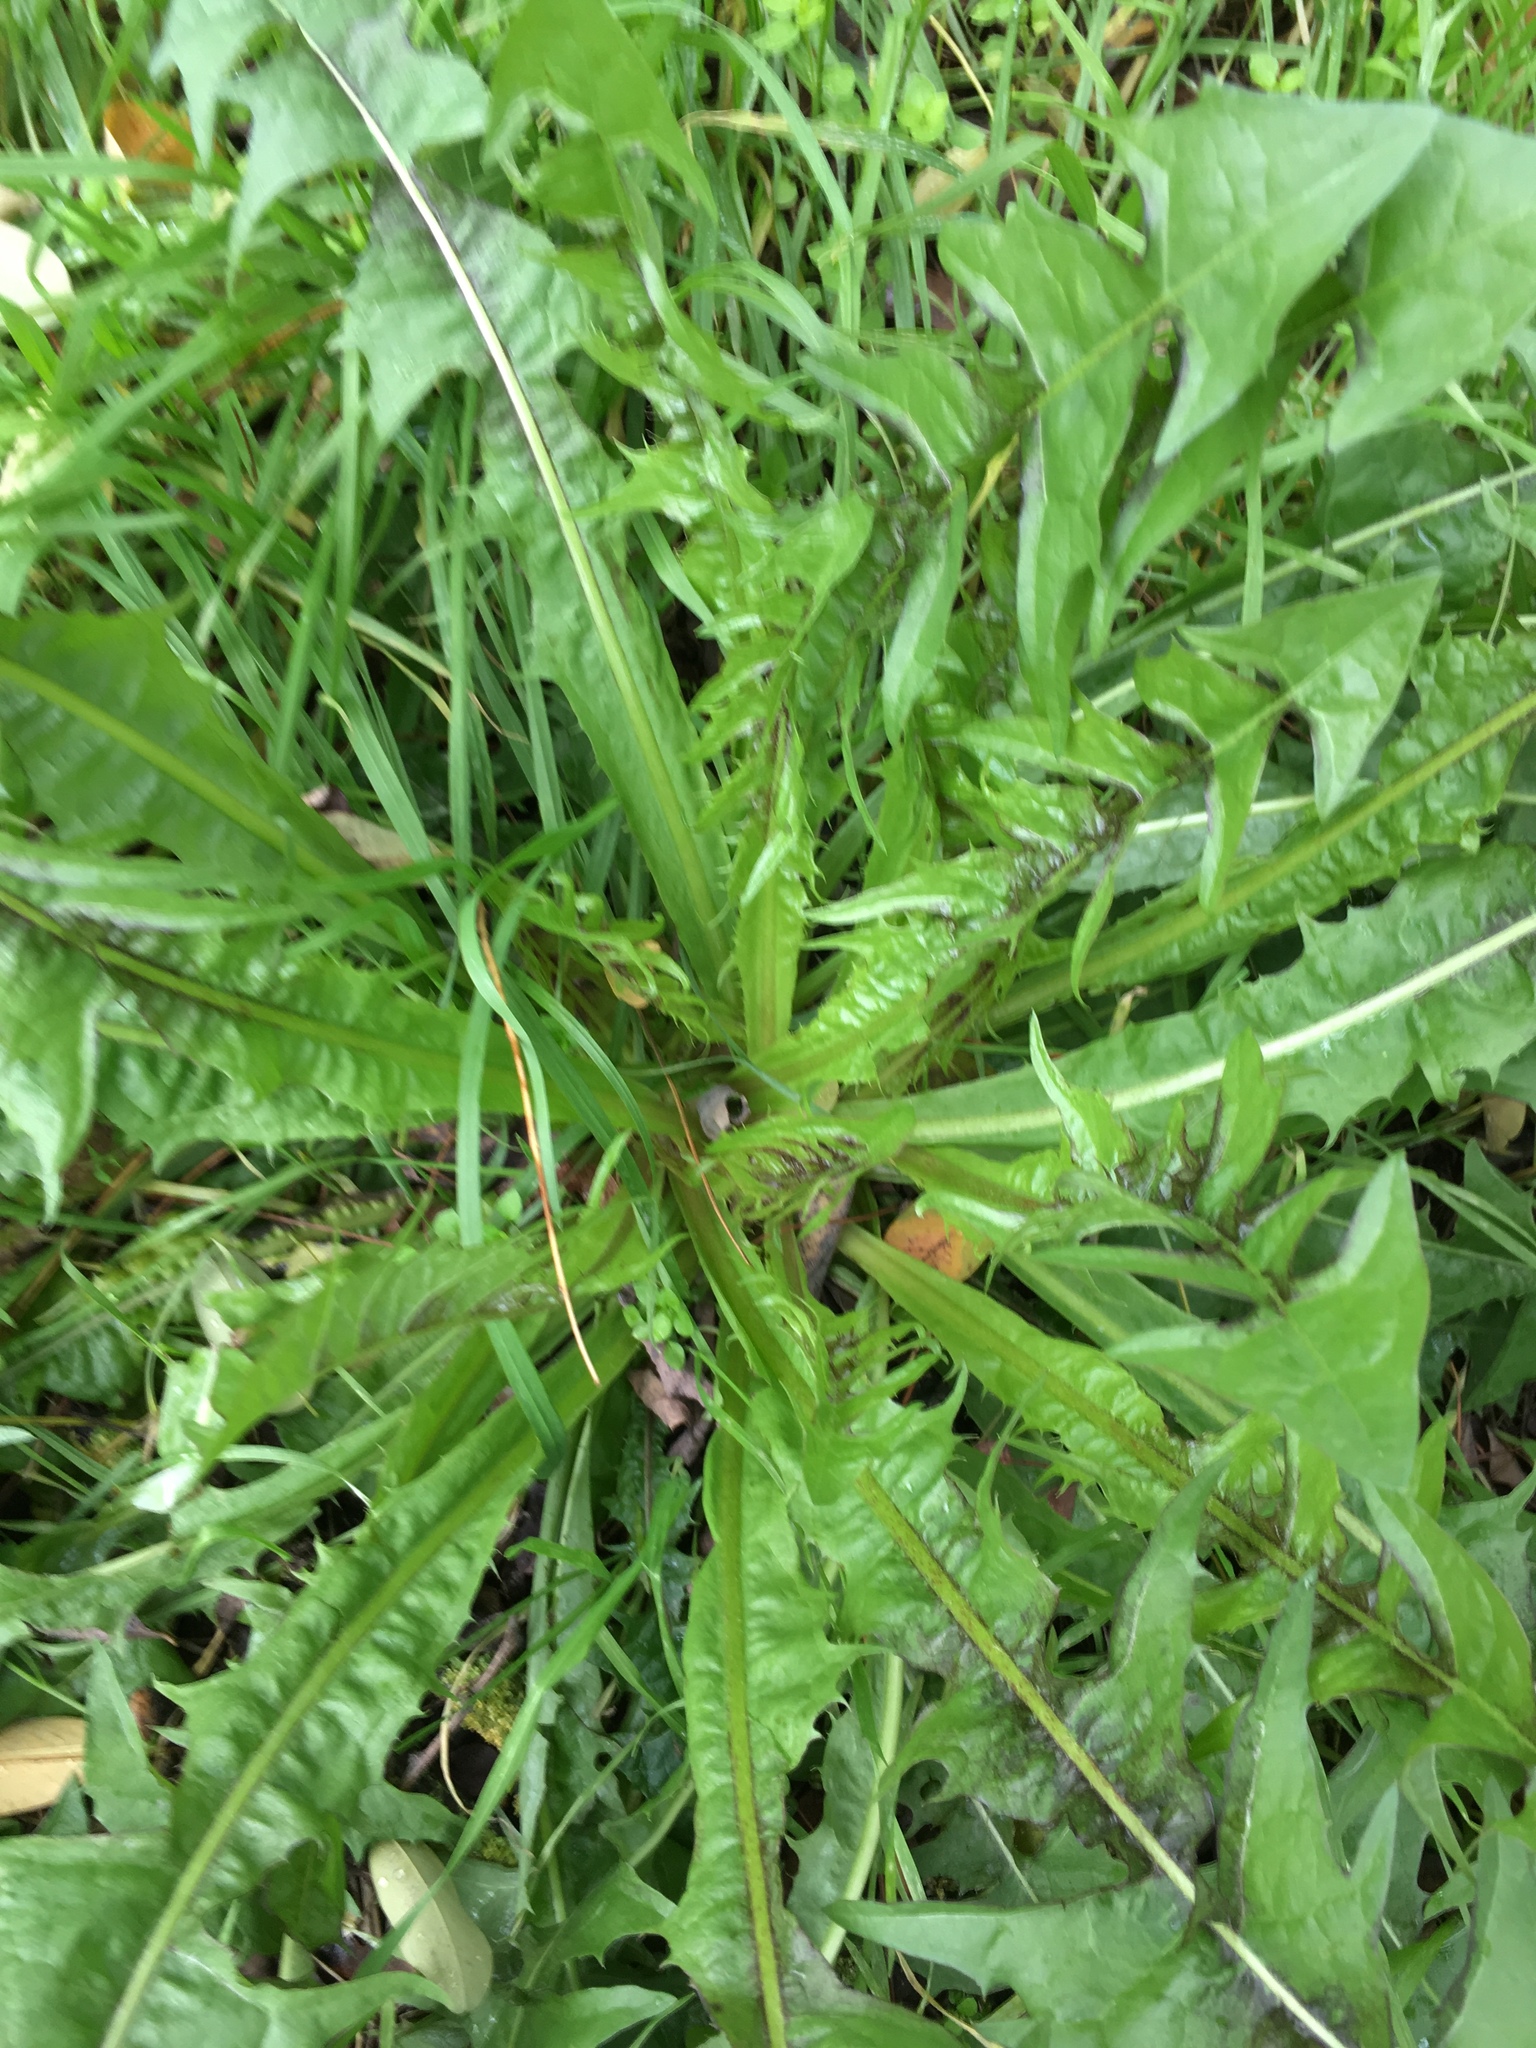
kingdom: Plantae
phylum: Tracheophyta
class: Magnoliopsida
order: Asterales
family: Asteraceae
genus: Taraxacum
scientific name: Taraxacum officinale
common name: Common dandelion
